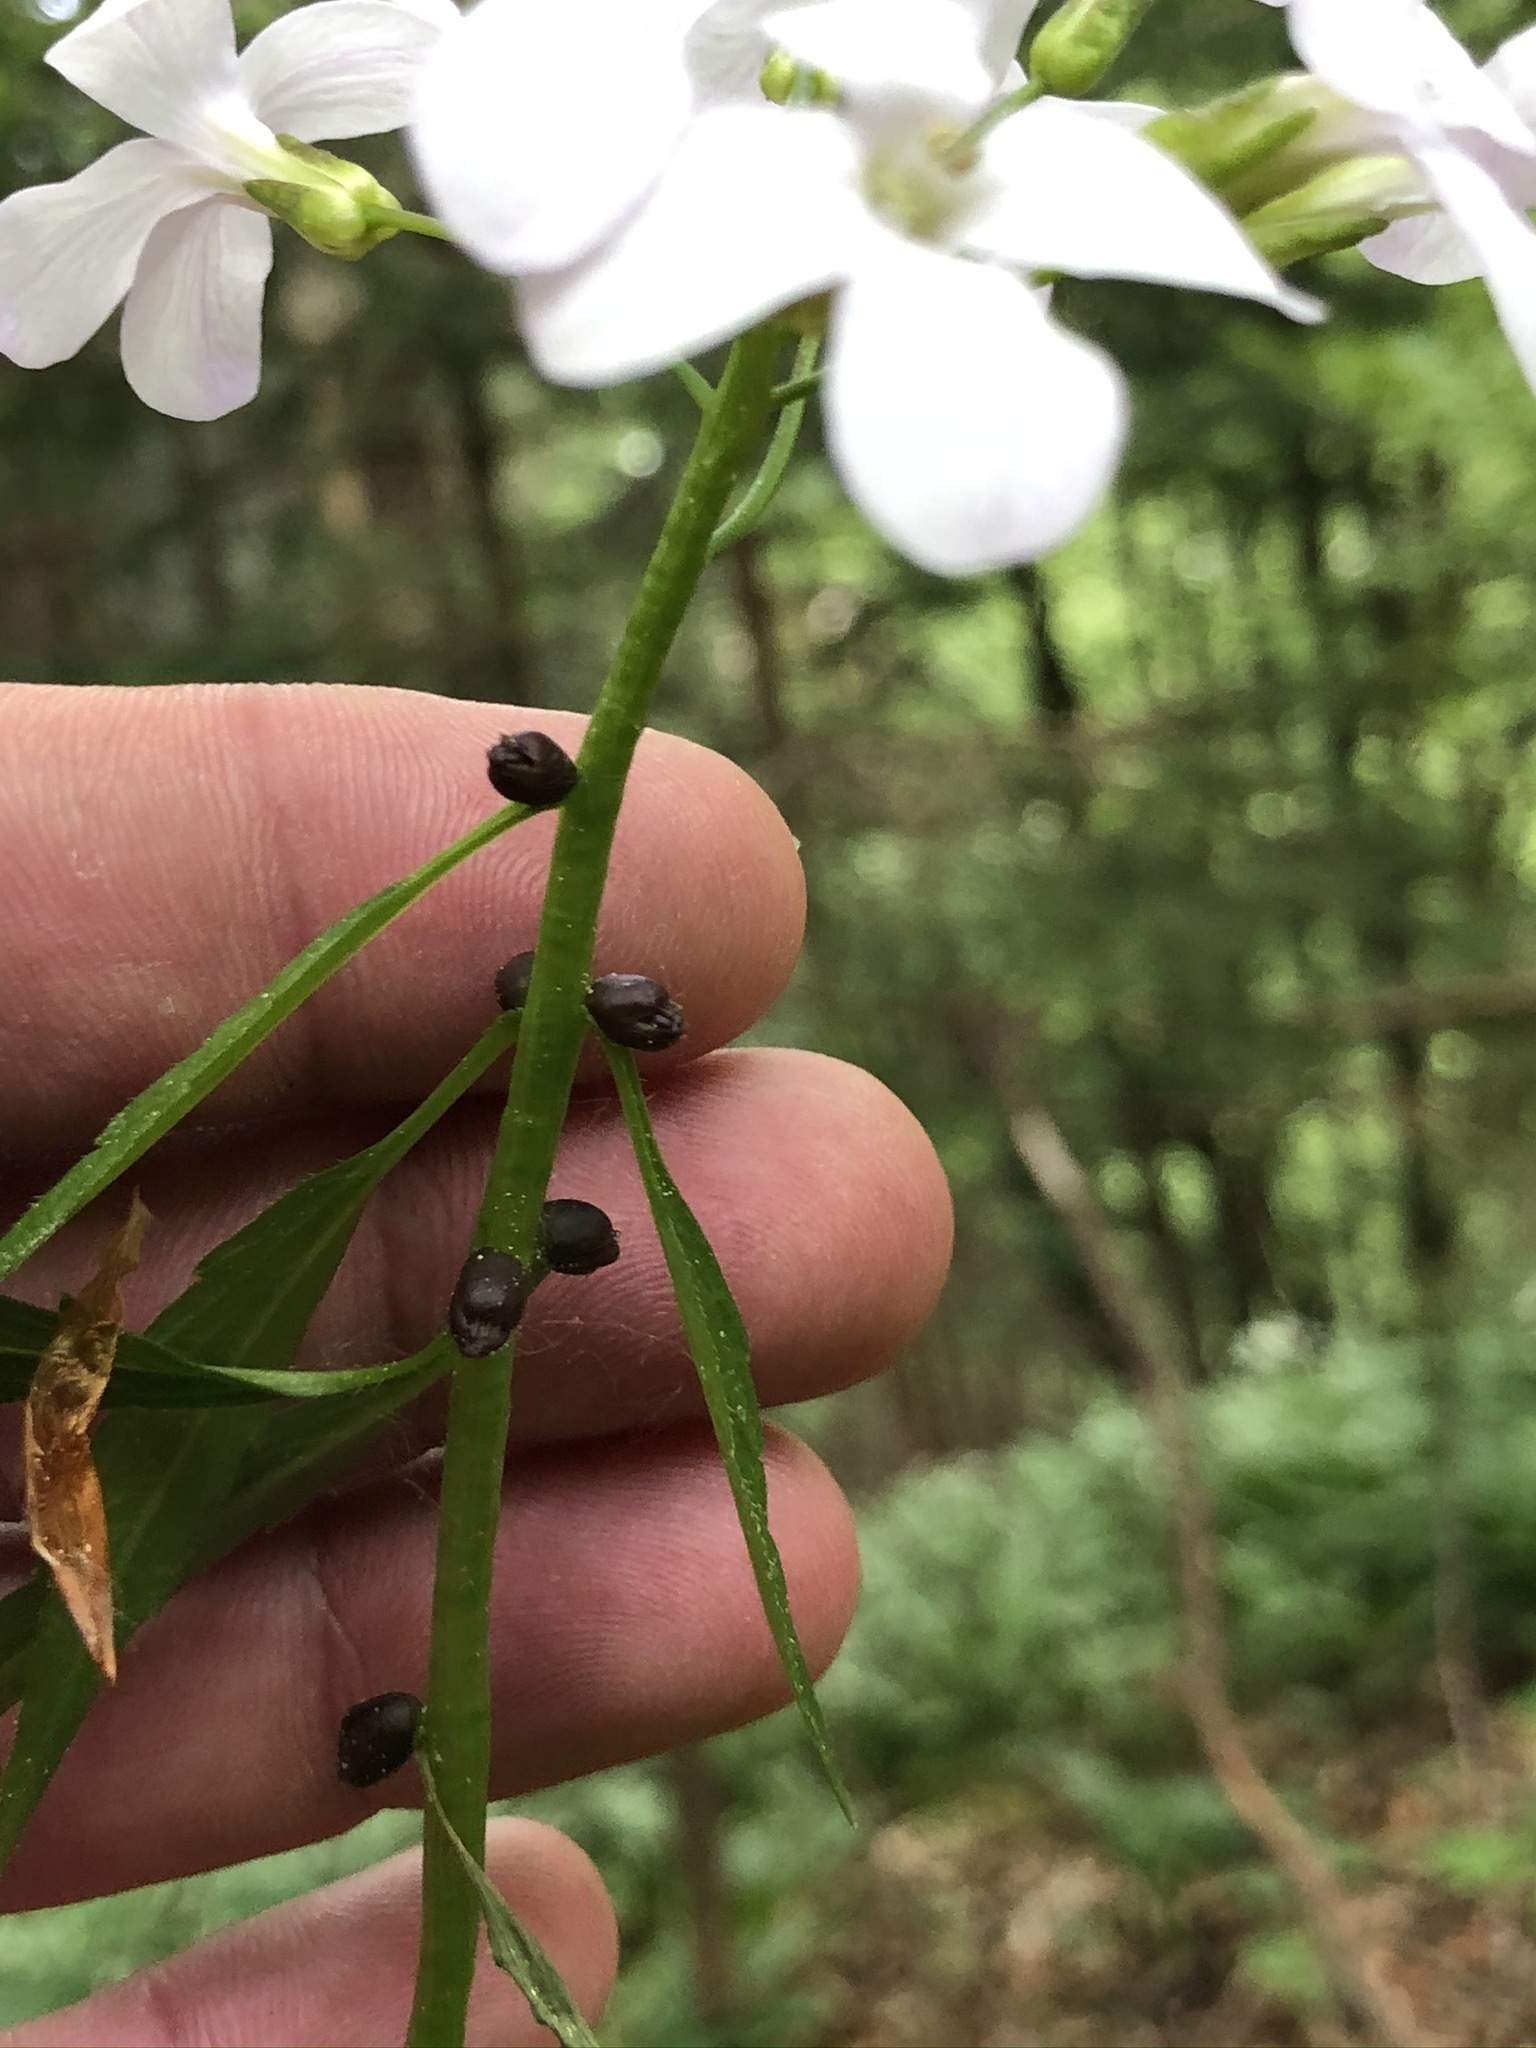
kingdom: Plantae
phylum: Tracheophyta
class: Magnoliopsida
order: Brassicales
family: Brassicaceae
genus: Cardamine
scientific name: Cardamine bulbifera
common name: Coralroot bittercress
